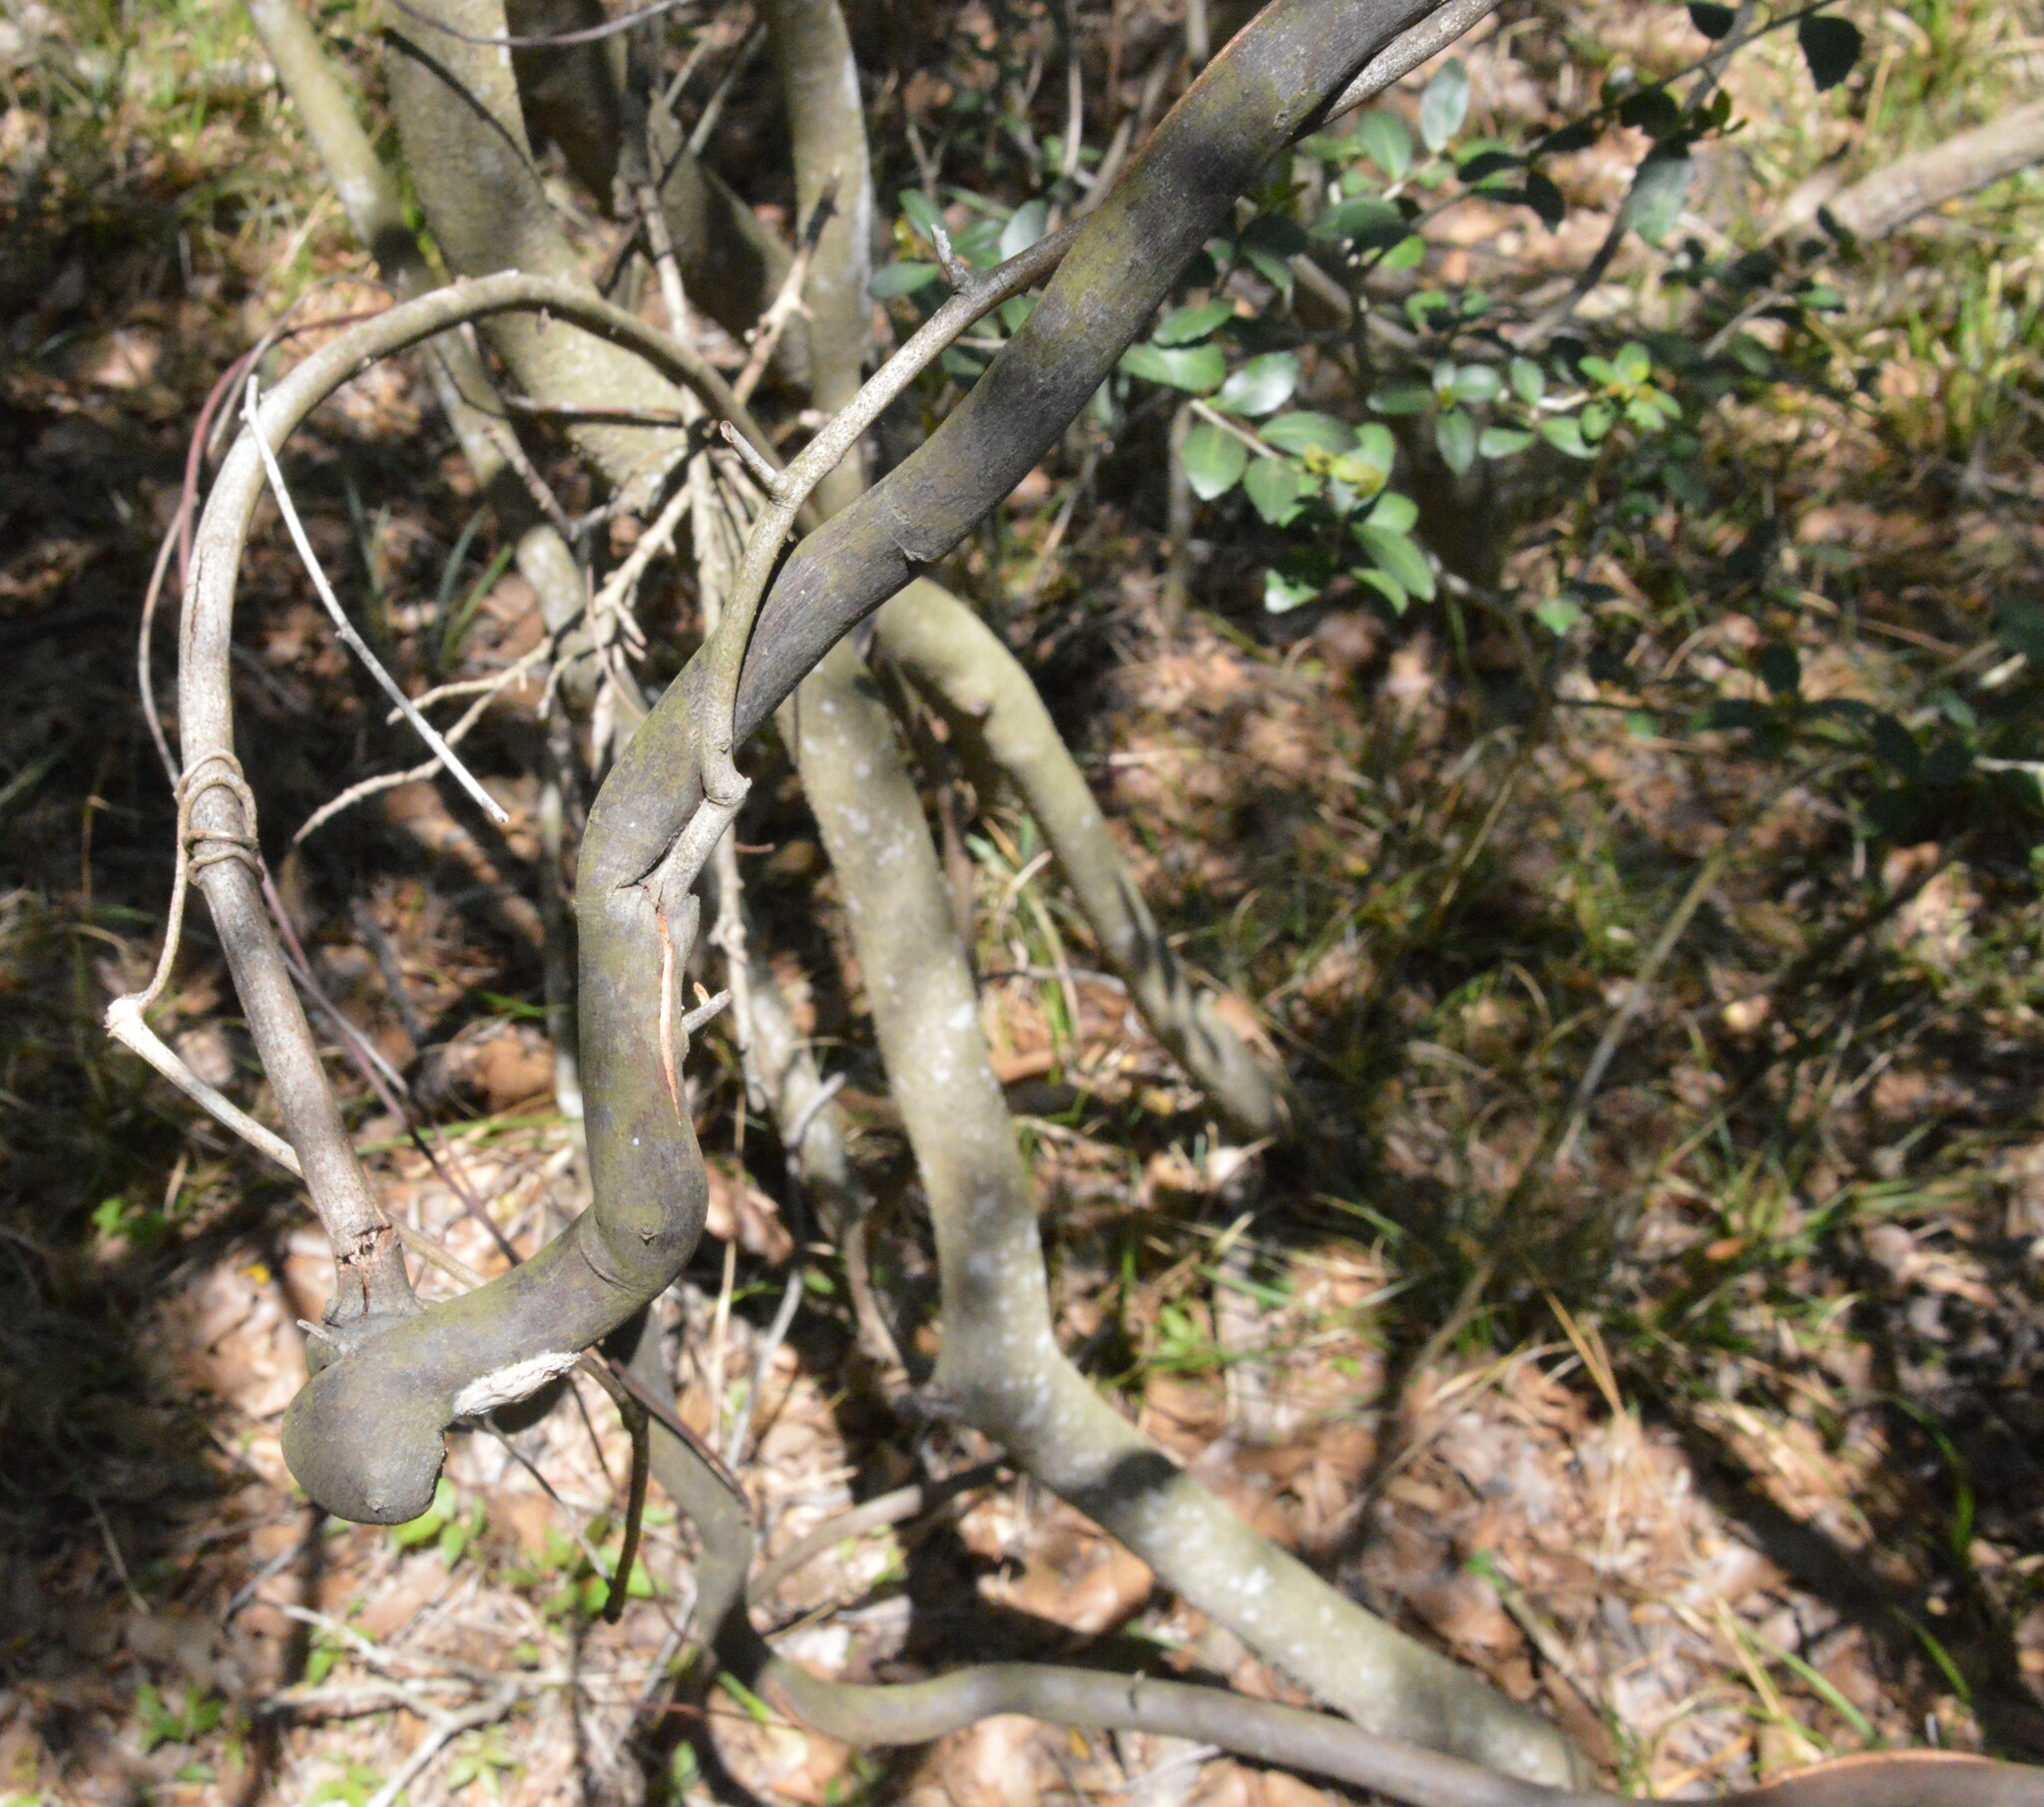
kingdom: Plantae
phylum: Tracheophyta
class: Magnoliopsida
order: Rosales
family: Rhamnaceae
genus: Berchemia
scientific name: Berchemia scandens
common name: Supplejack
